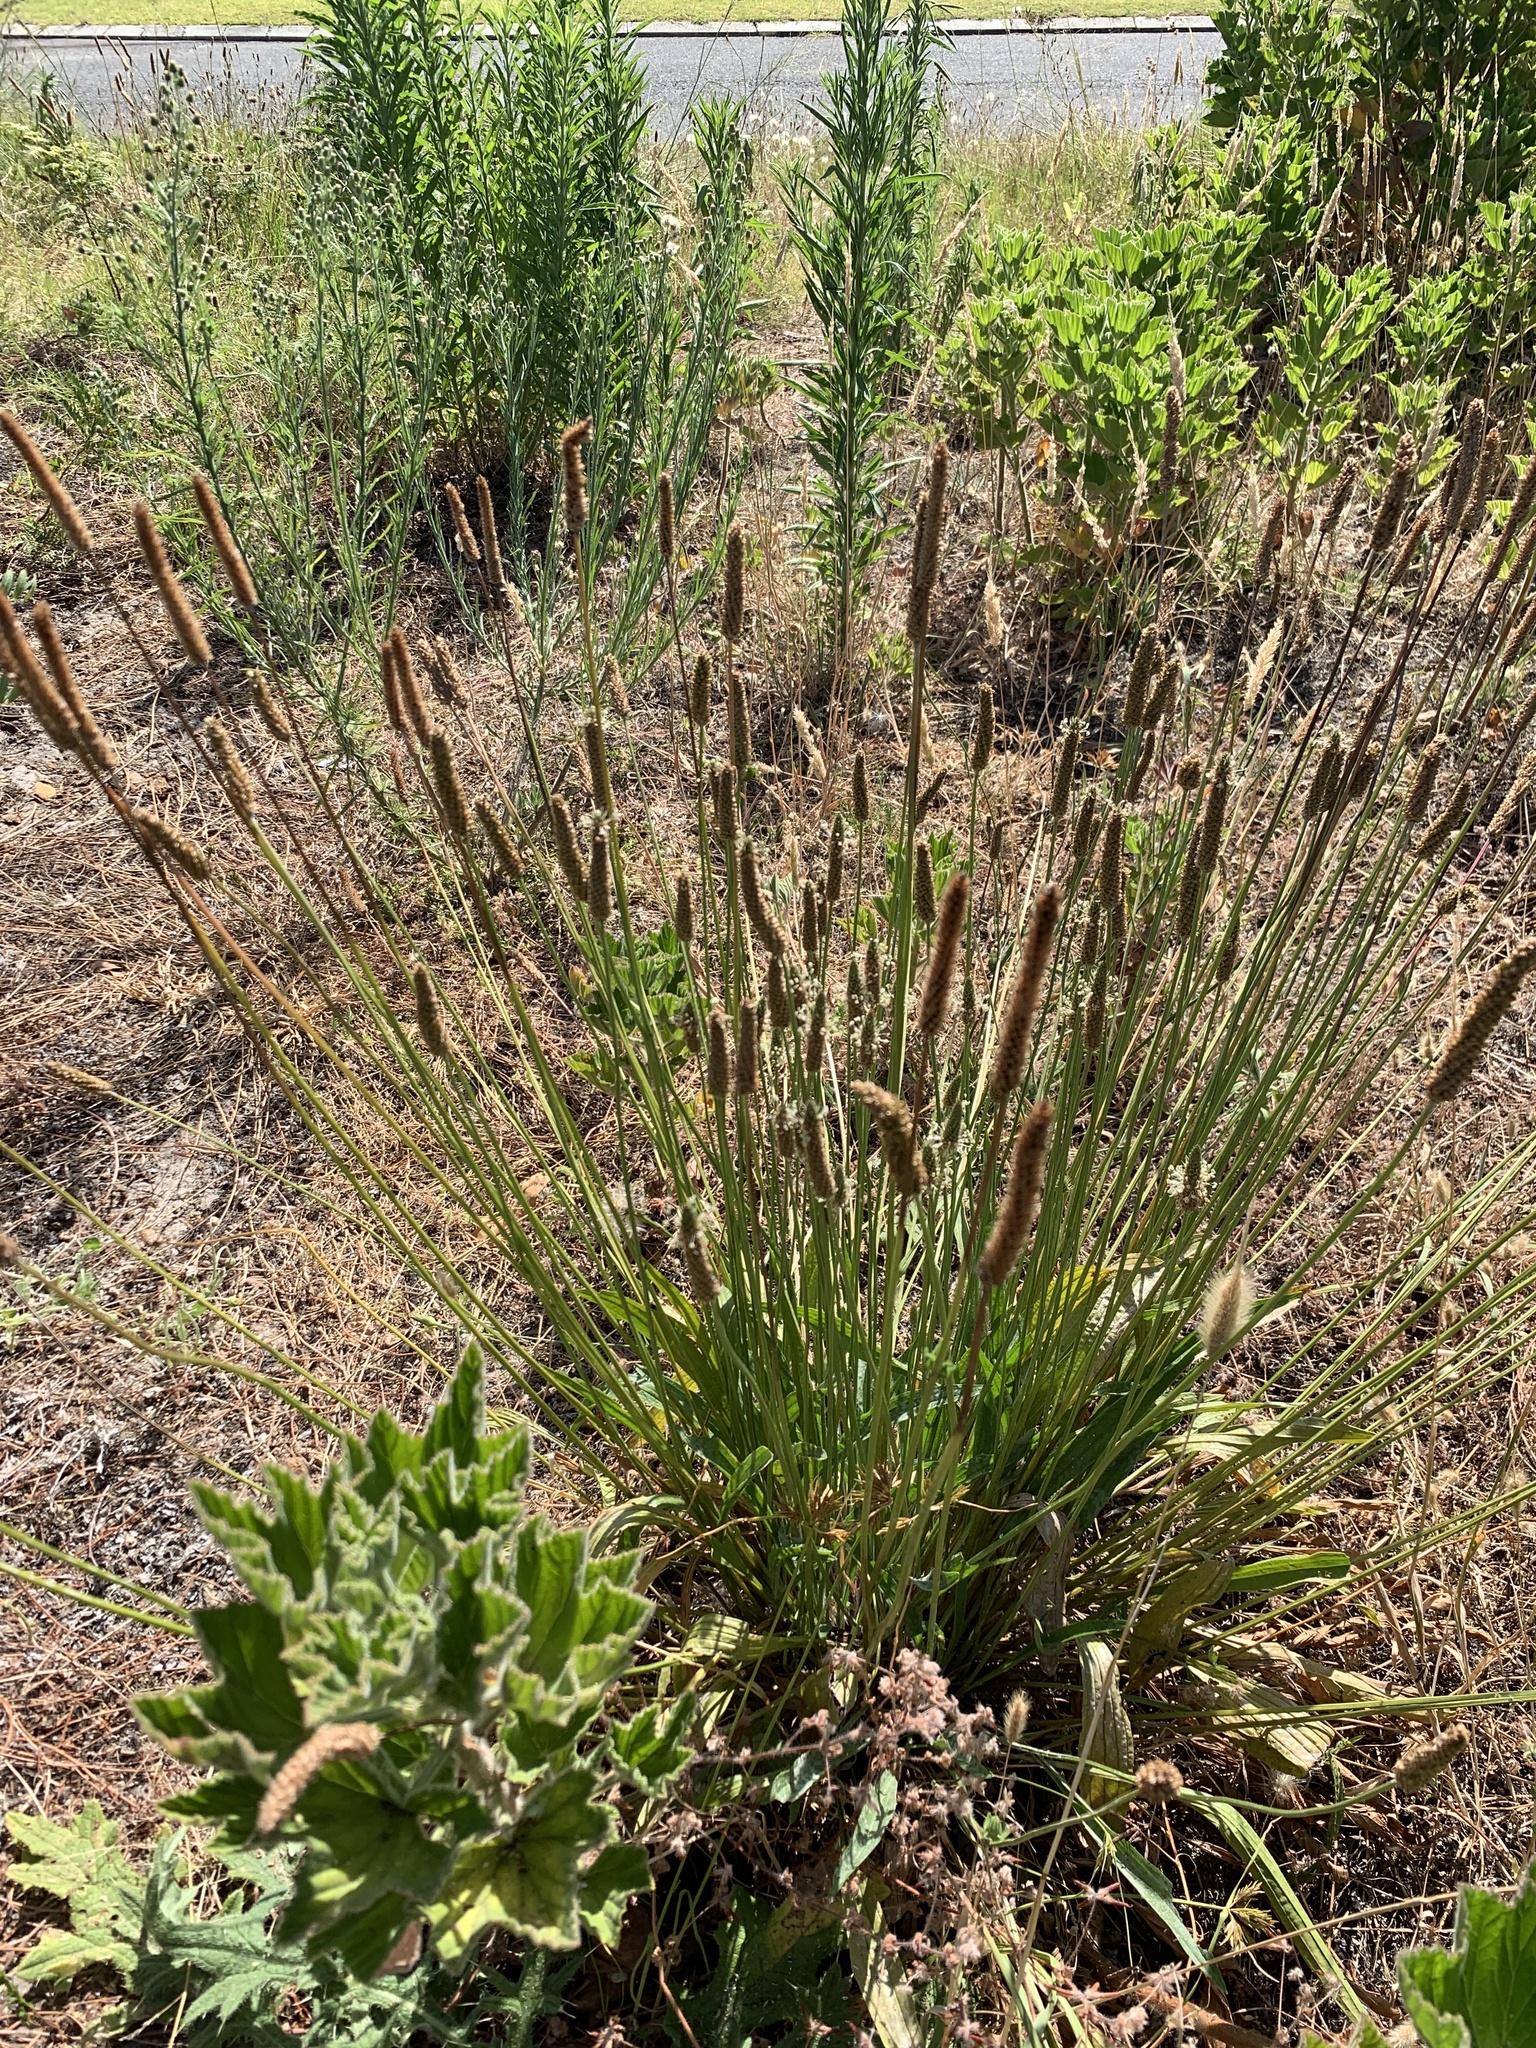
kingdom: Plantae
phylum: Tracheophyta
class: Magnoliopsida
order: Lamiales
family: Plantaginaceae
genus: Plantago
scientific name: Plantago lanceolata
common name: Ribwort plantain
